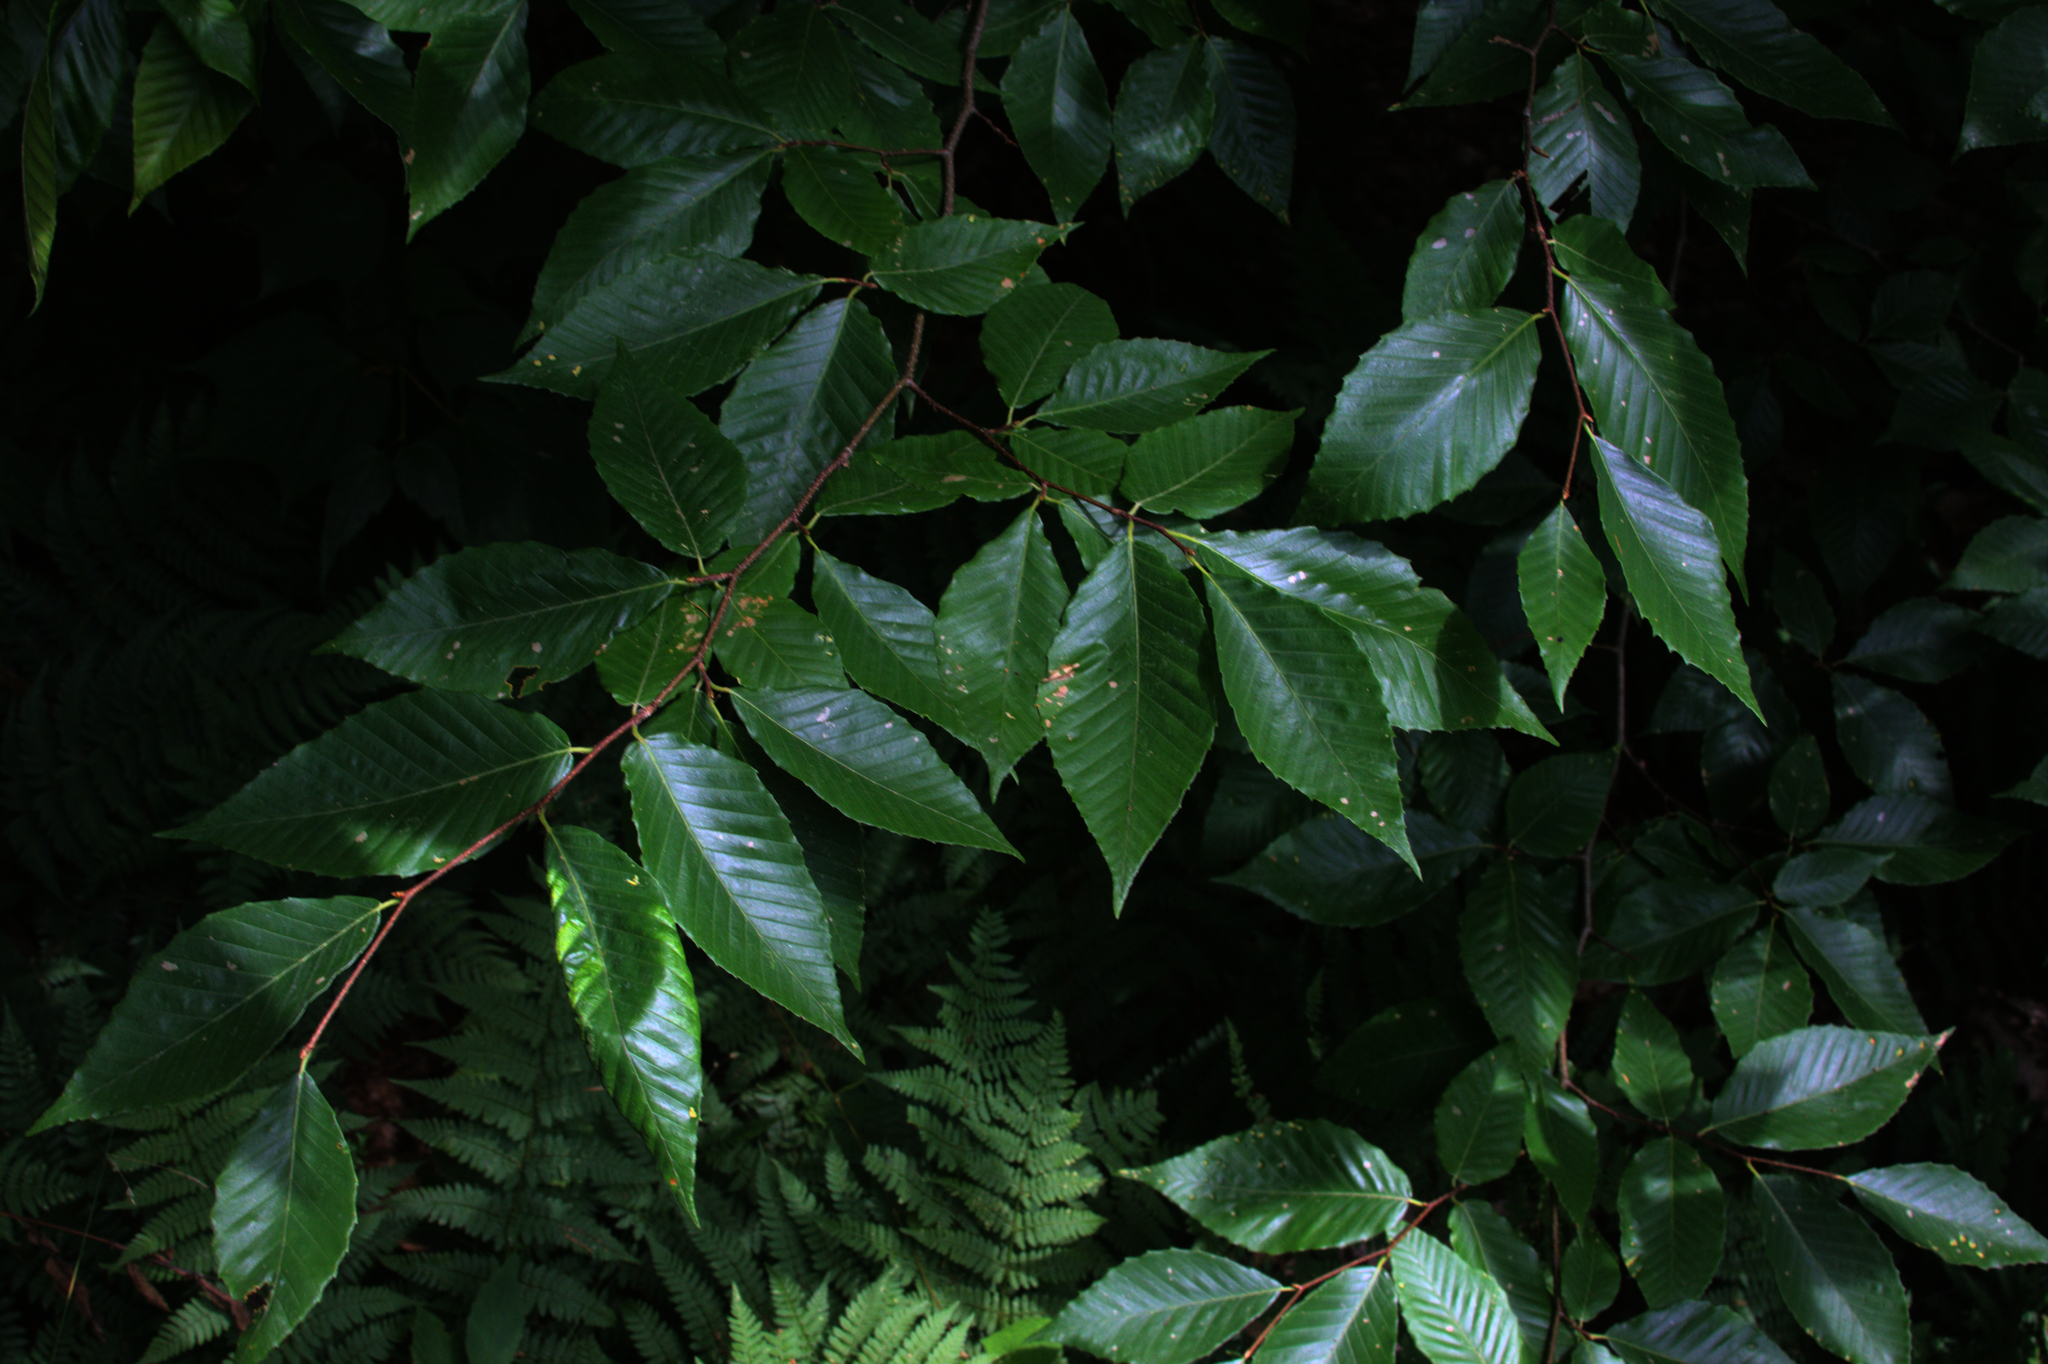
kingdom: Plantae
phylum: Tracheophyta
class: Magnoliopsida
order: Fagales
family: Fagaceae
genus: Fagus
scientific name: Fagus grandifolia
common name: American beech
